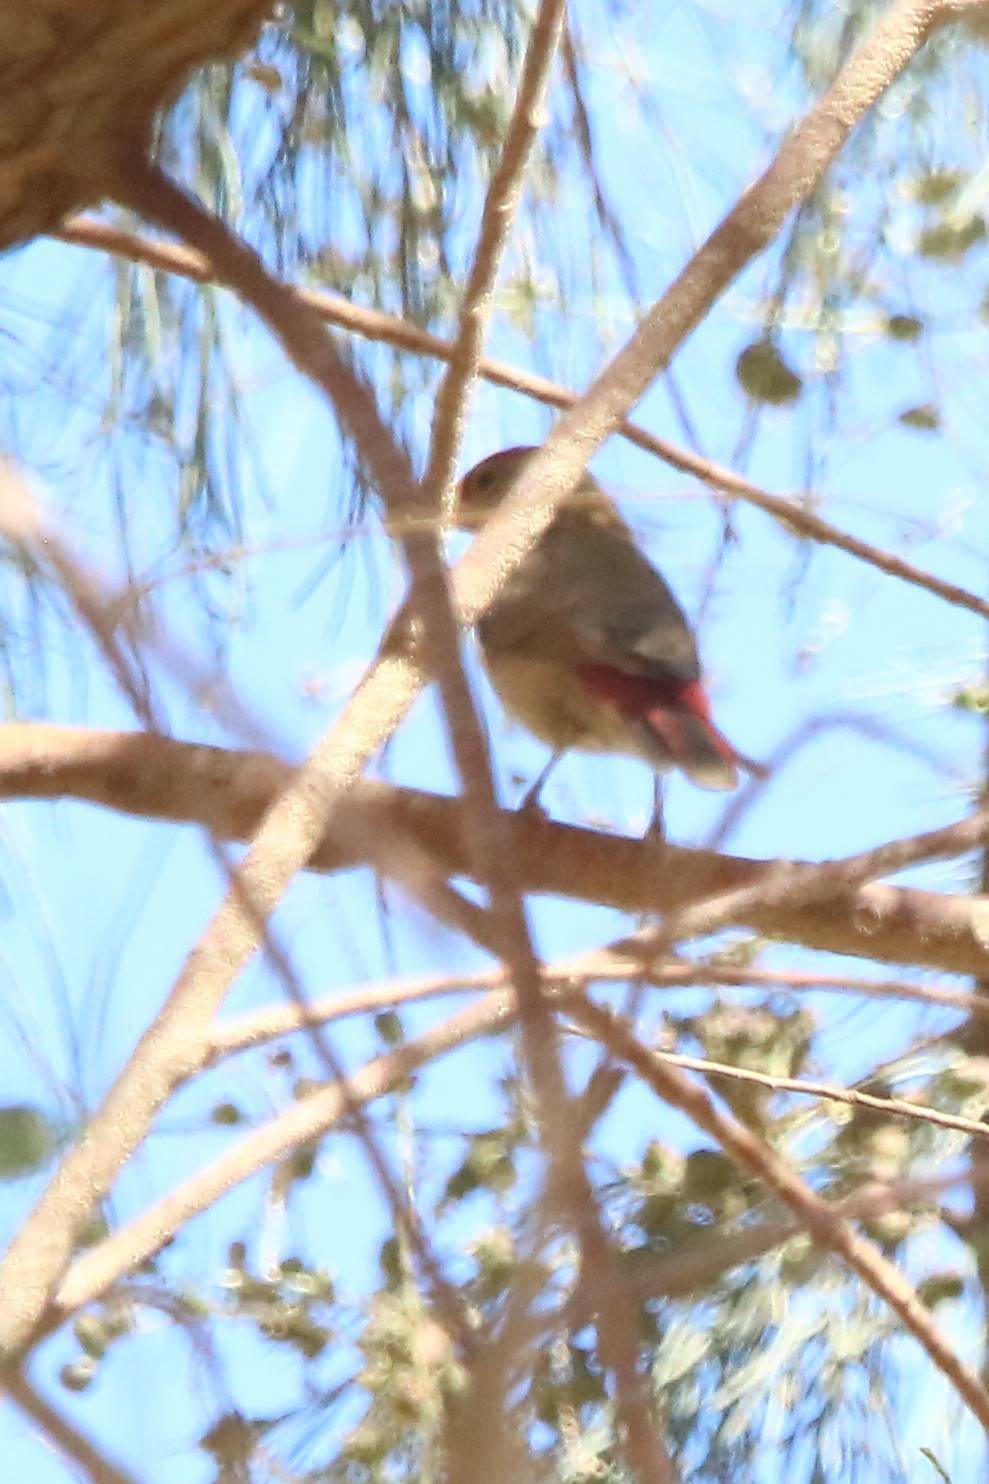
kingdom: Animalia
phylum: Chordata
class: Aves
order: Passeriformes
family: Estrildidae
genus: Lagonosticta
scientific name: Lagonosticta senegala
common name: Red-billed firefinch
